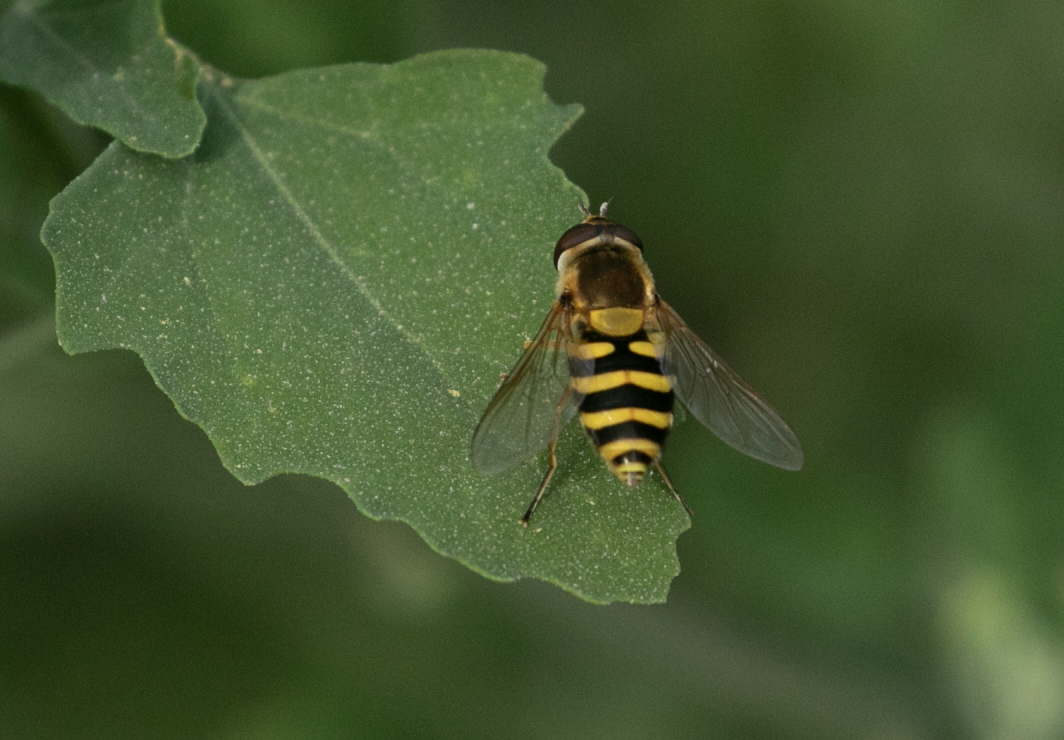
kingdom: Animalia
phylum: Arthropoda
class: Insecta
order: Diptera
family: Syrphidae
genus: Syrphus
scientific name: Syrphus
